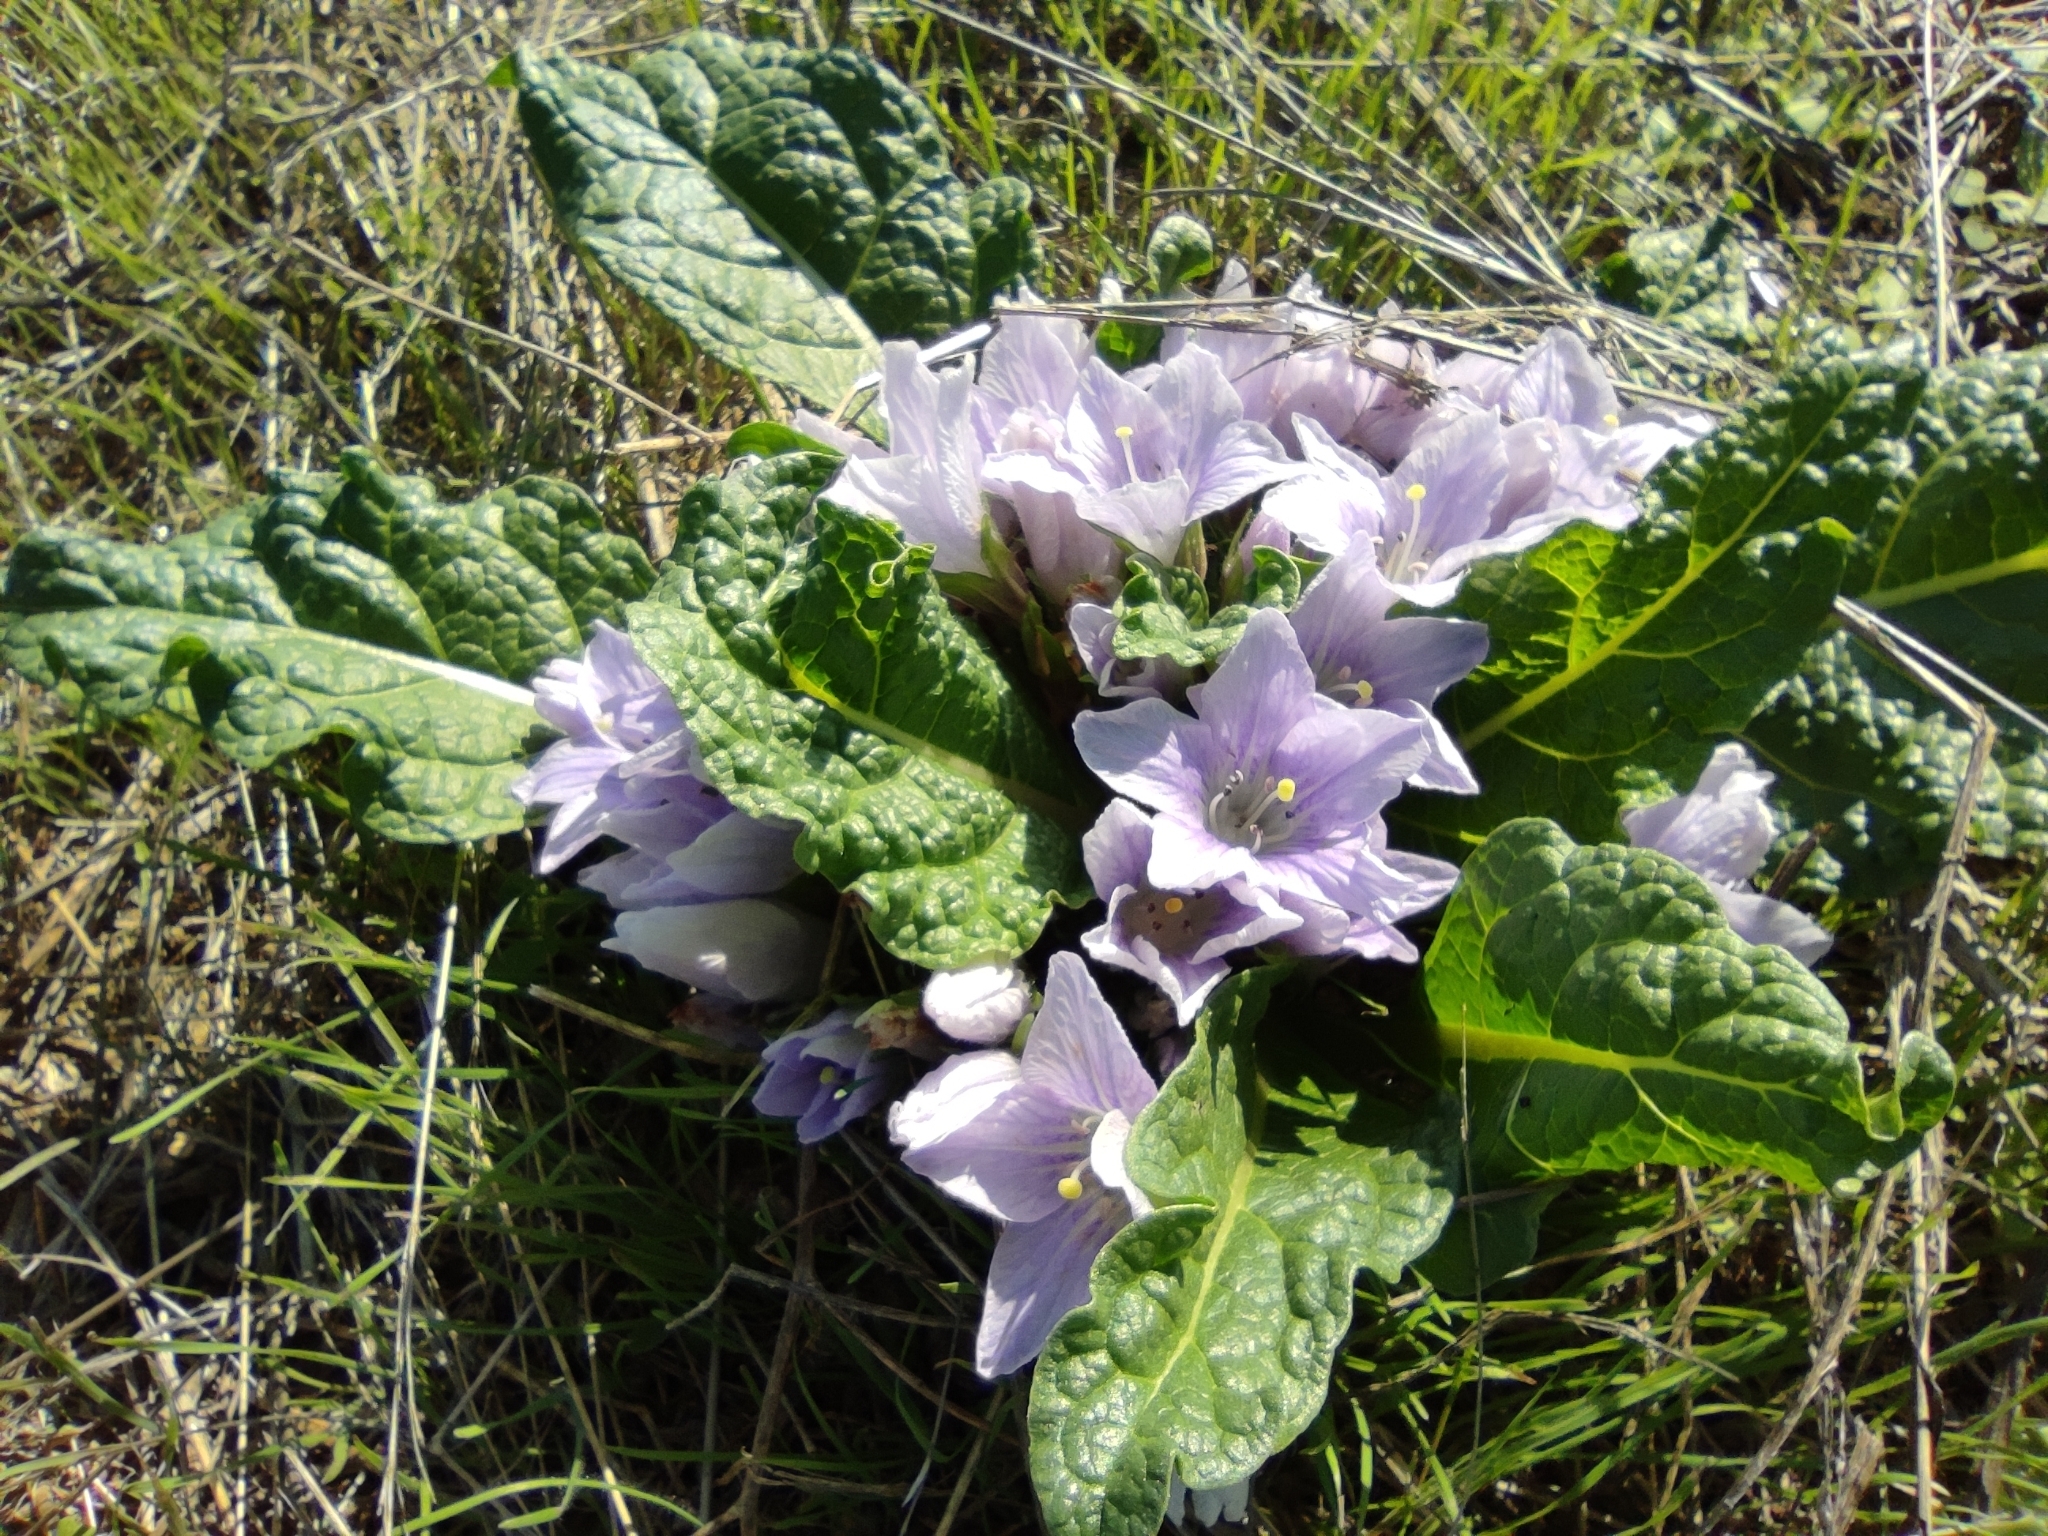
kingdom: Plantae
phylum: Tracheophyta
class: Magnoliopsida
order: Solanales
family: Solanaceae
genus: Mandragora
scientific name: Mandragora officinarum
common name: Mandrake
